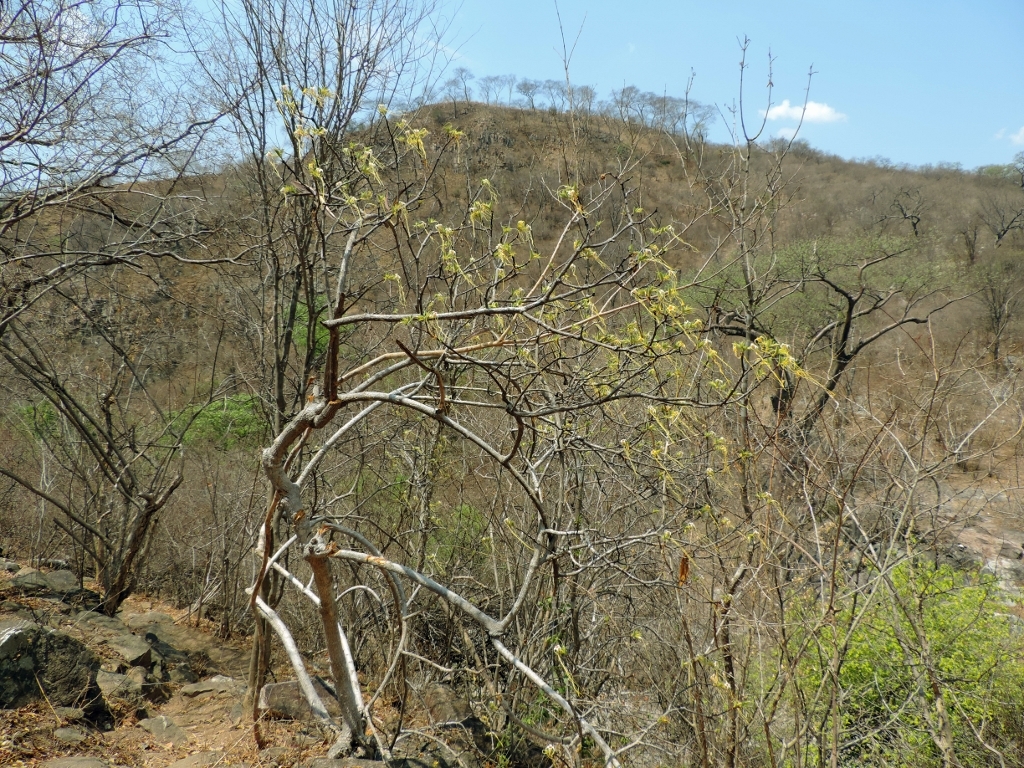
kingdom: Plantae
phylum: Tracheophyta
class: Magnoliopsida
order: Gentianales
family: Apocynaceae
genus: Strophanthus
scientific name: Strophanthus kombe
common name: Kombe
